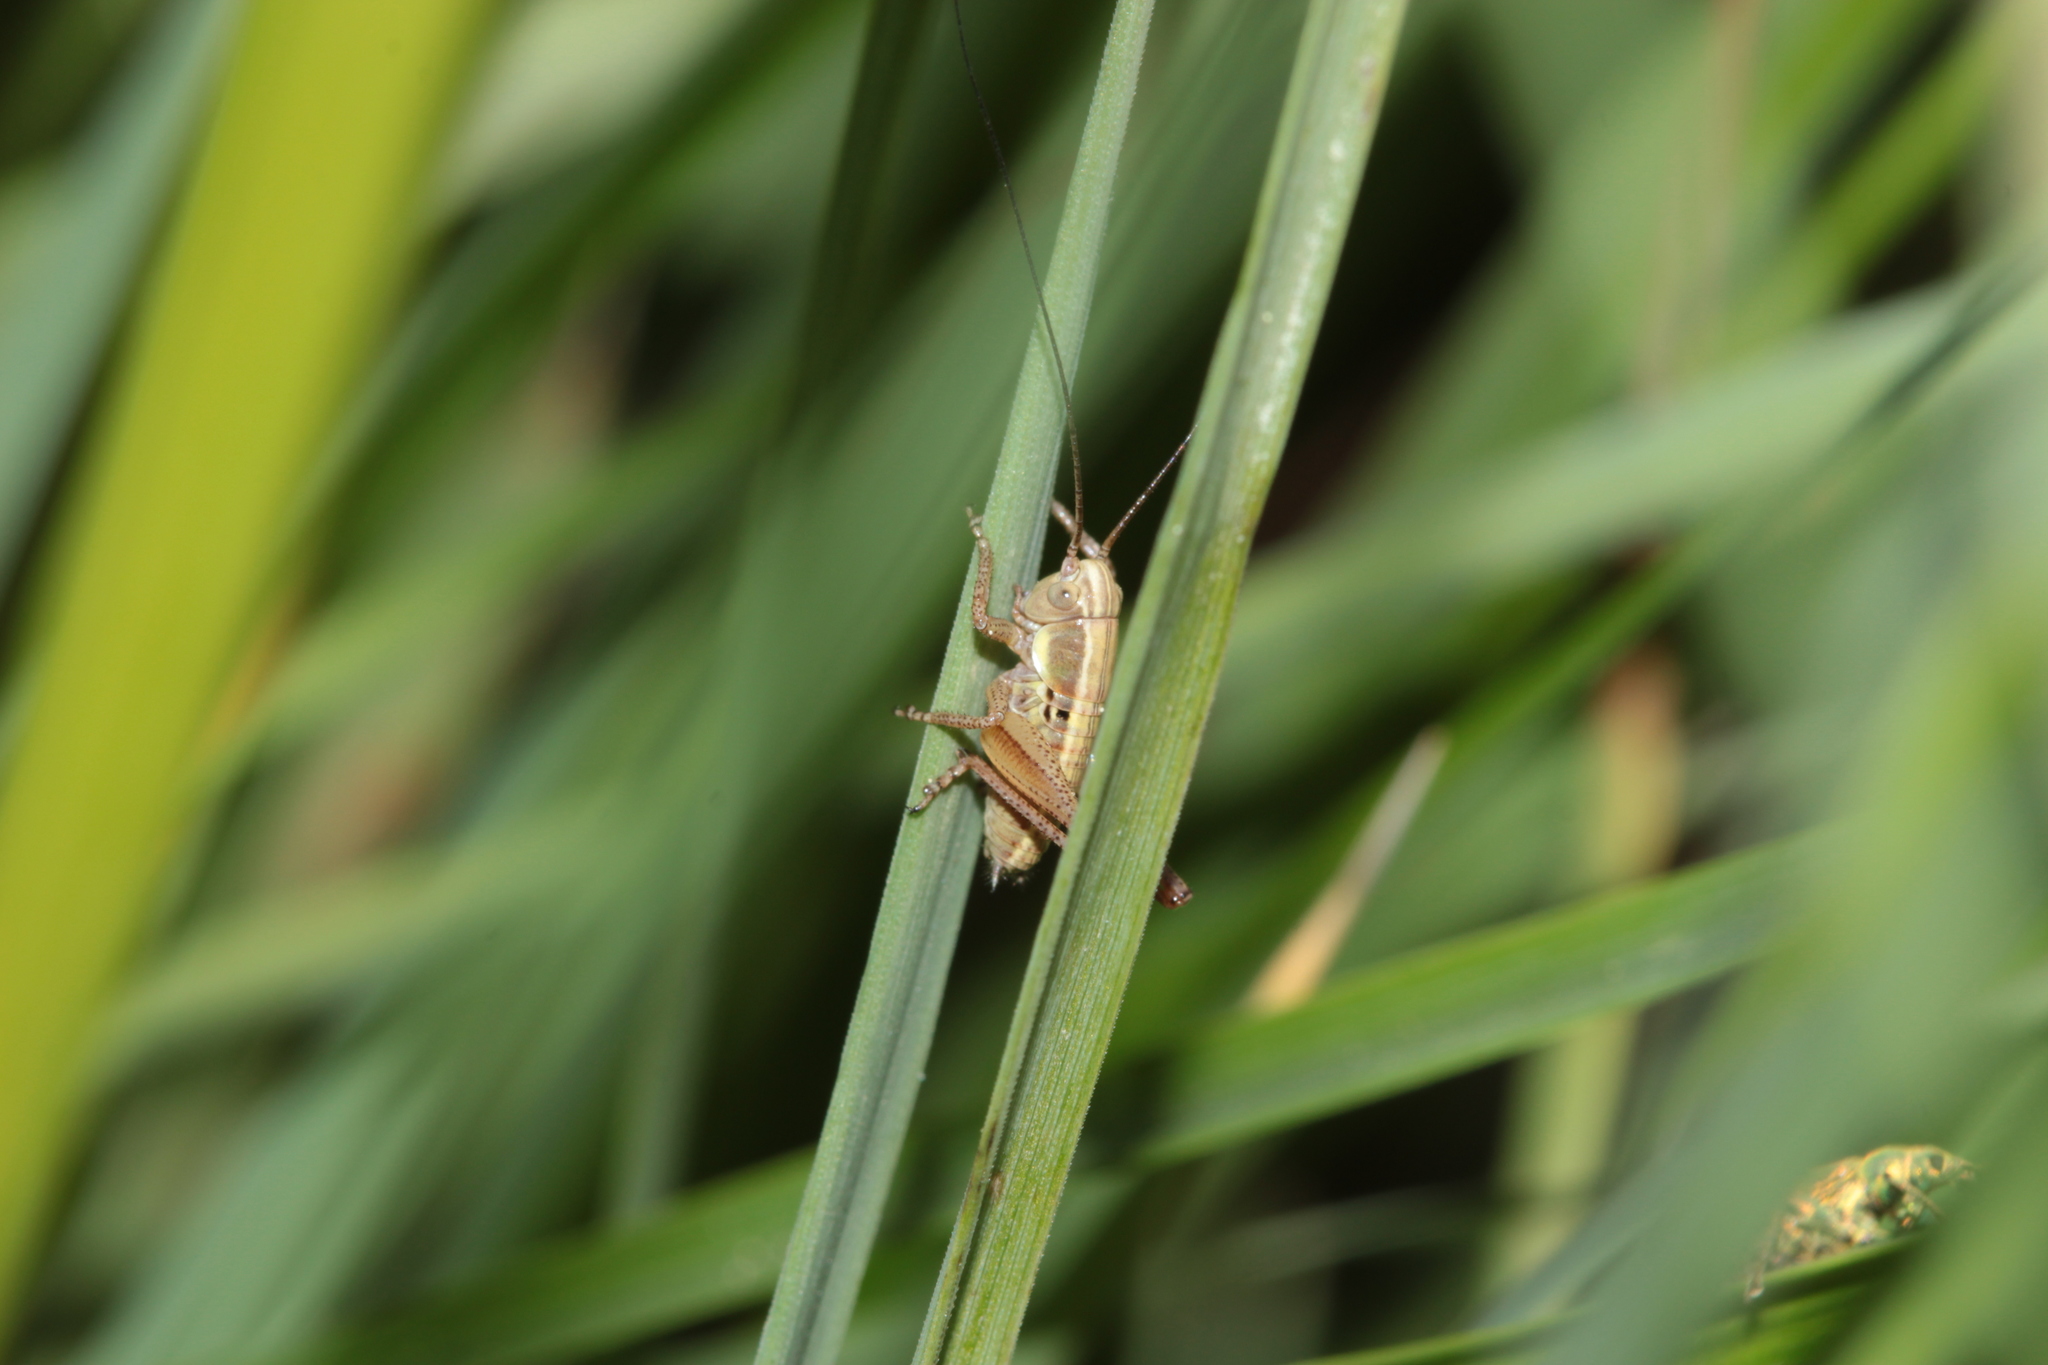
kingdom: Animalia
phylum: Arthropoda
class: Insecta
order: Orthoptera
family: Tettigoniidae
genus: Roeseliana
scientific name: Roeseliana roeselii
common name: Roesel's bush cricket
